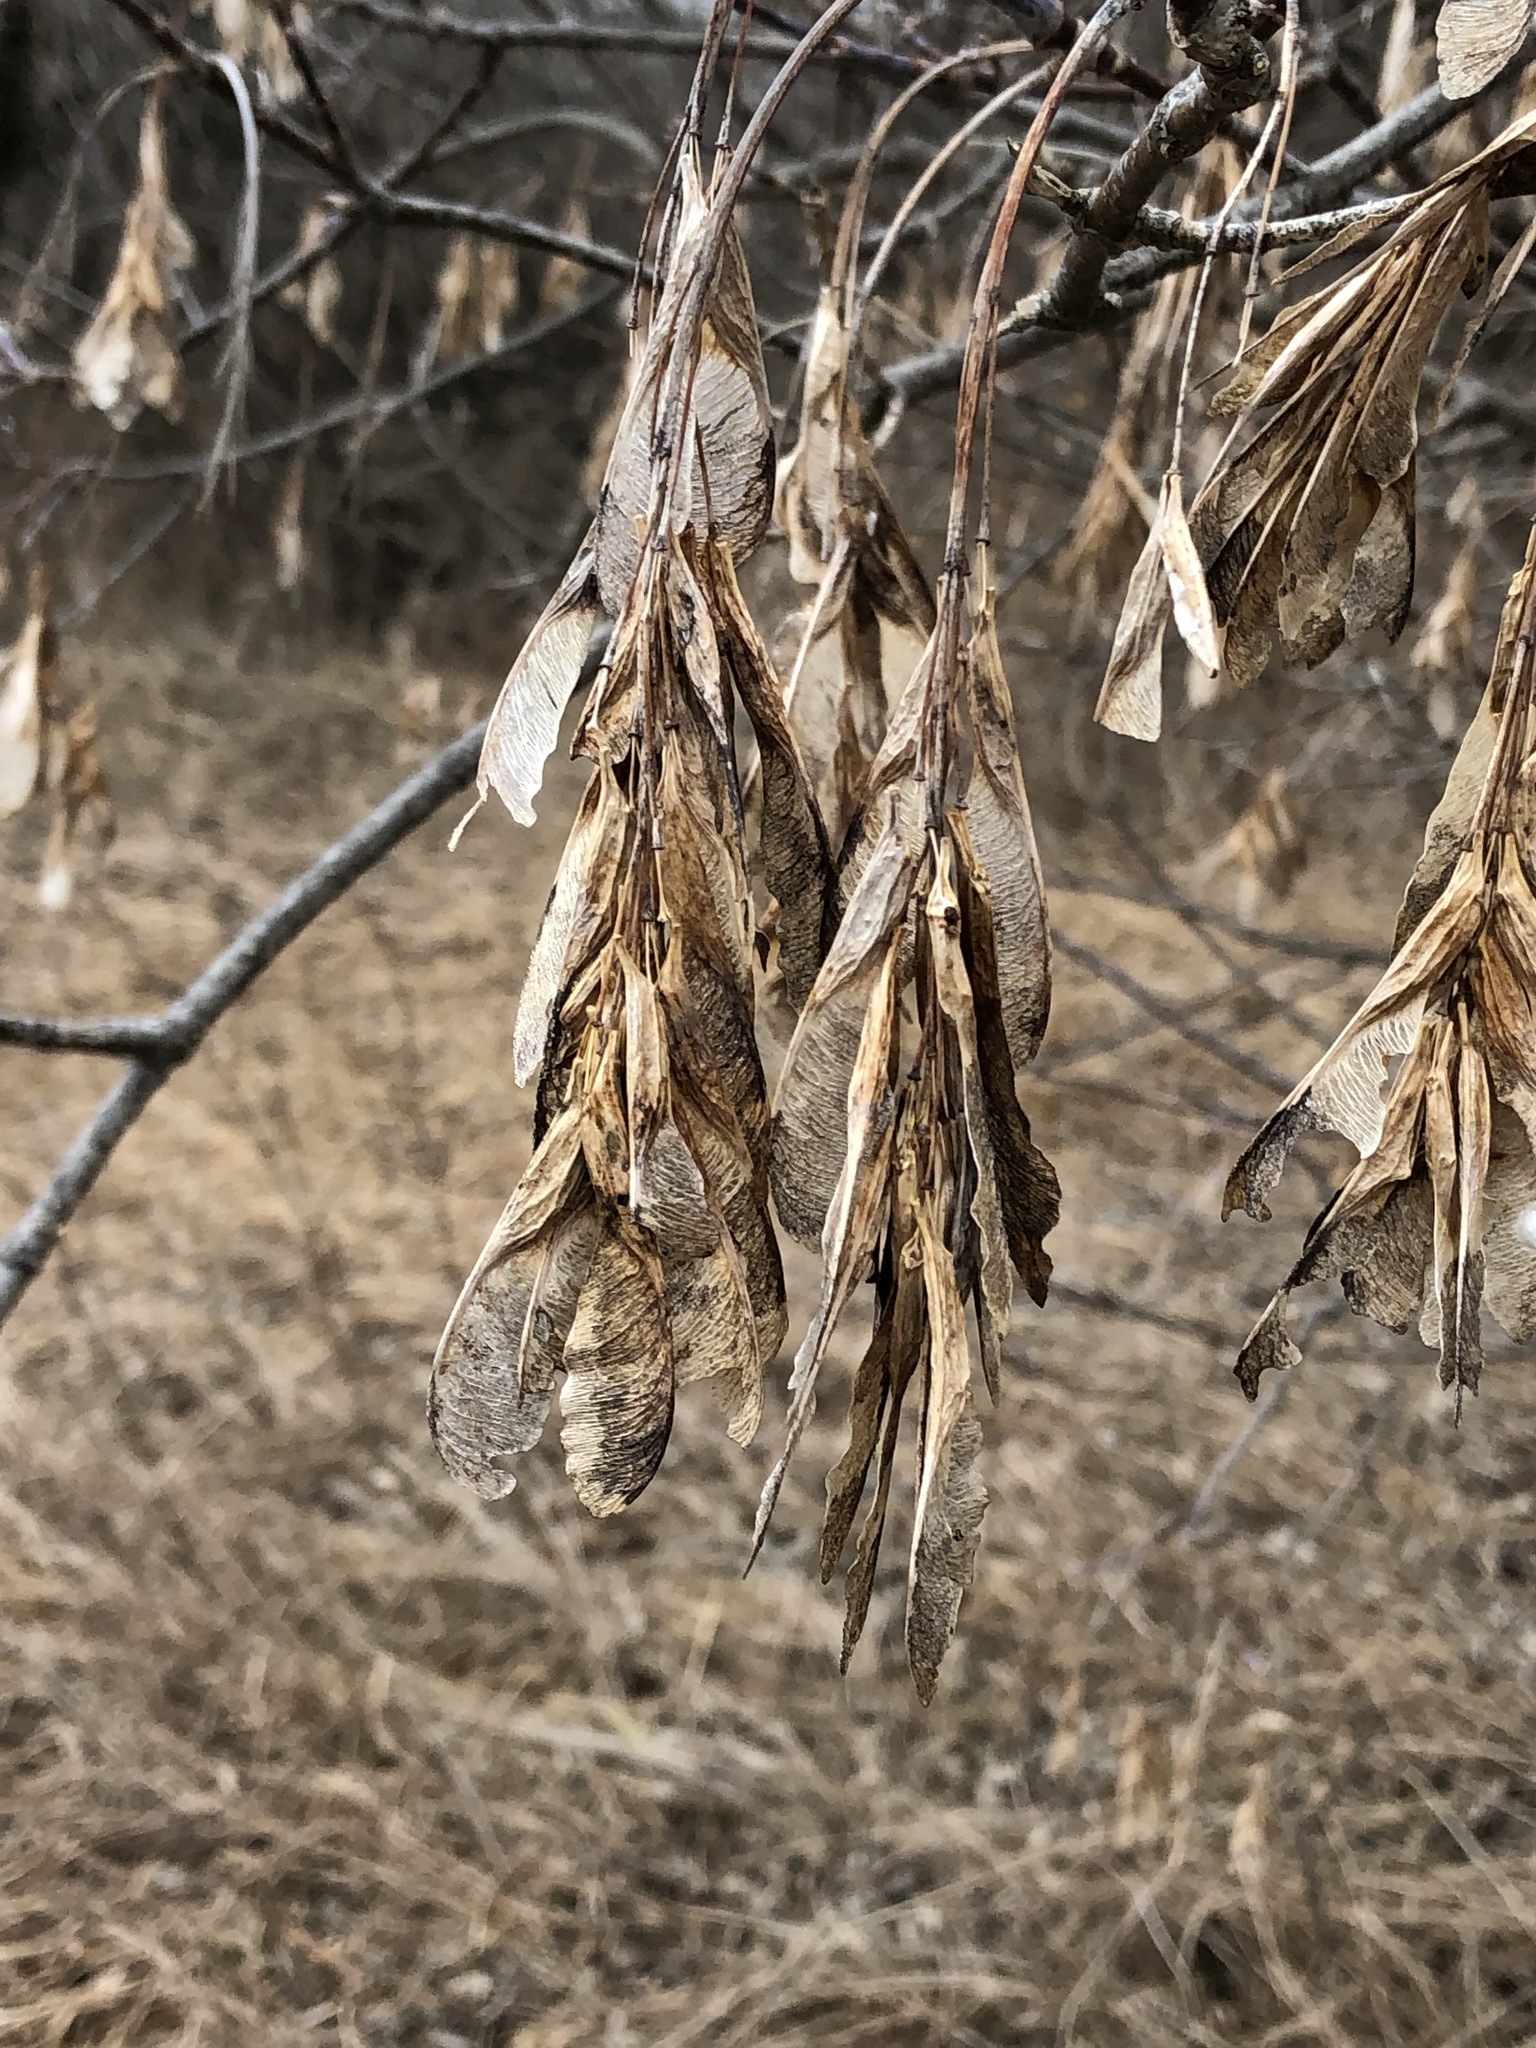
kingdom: Plantae
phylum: Tracheophyta
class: Magnoliopsida
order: Sapindales
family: Sapindaceae
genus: Acer
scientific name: Acer negundo
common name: Ashleaf maple
